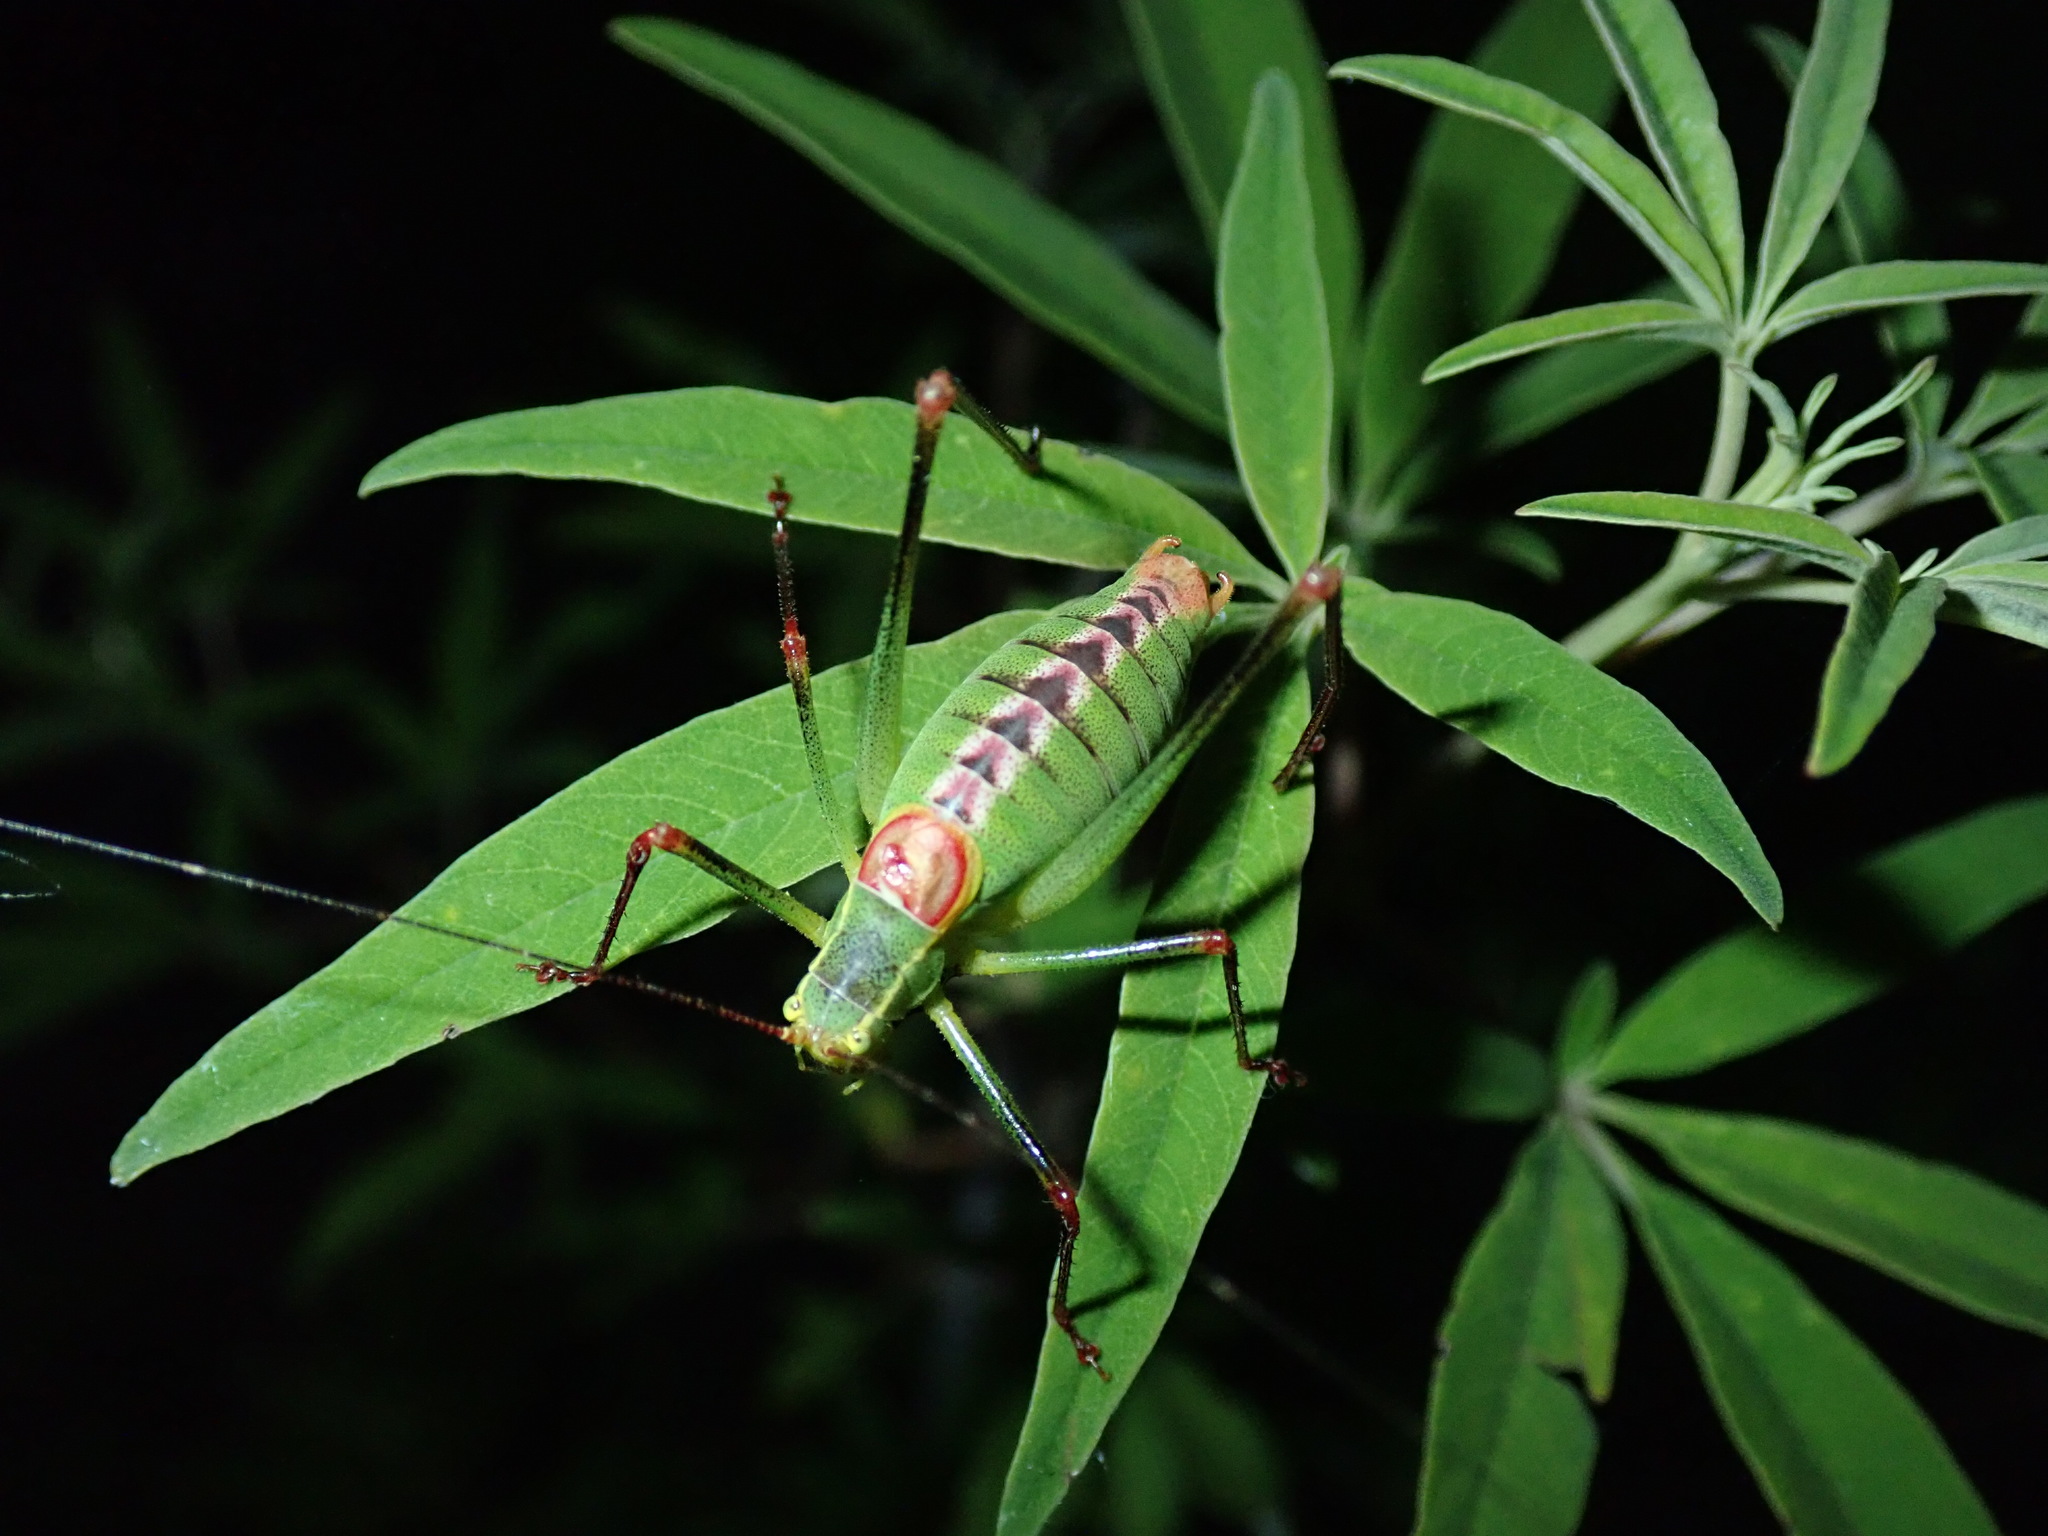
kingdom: Animalia
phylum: Arthropoda
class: Insecta
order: Orthoptera
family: Tettigoniidae
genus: Leptophyes
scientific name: Leptophyes laticauda
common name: Long-tailed speckled bush-cricket
